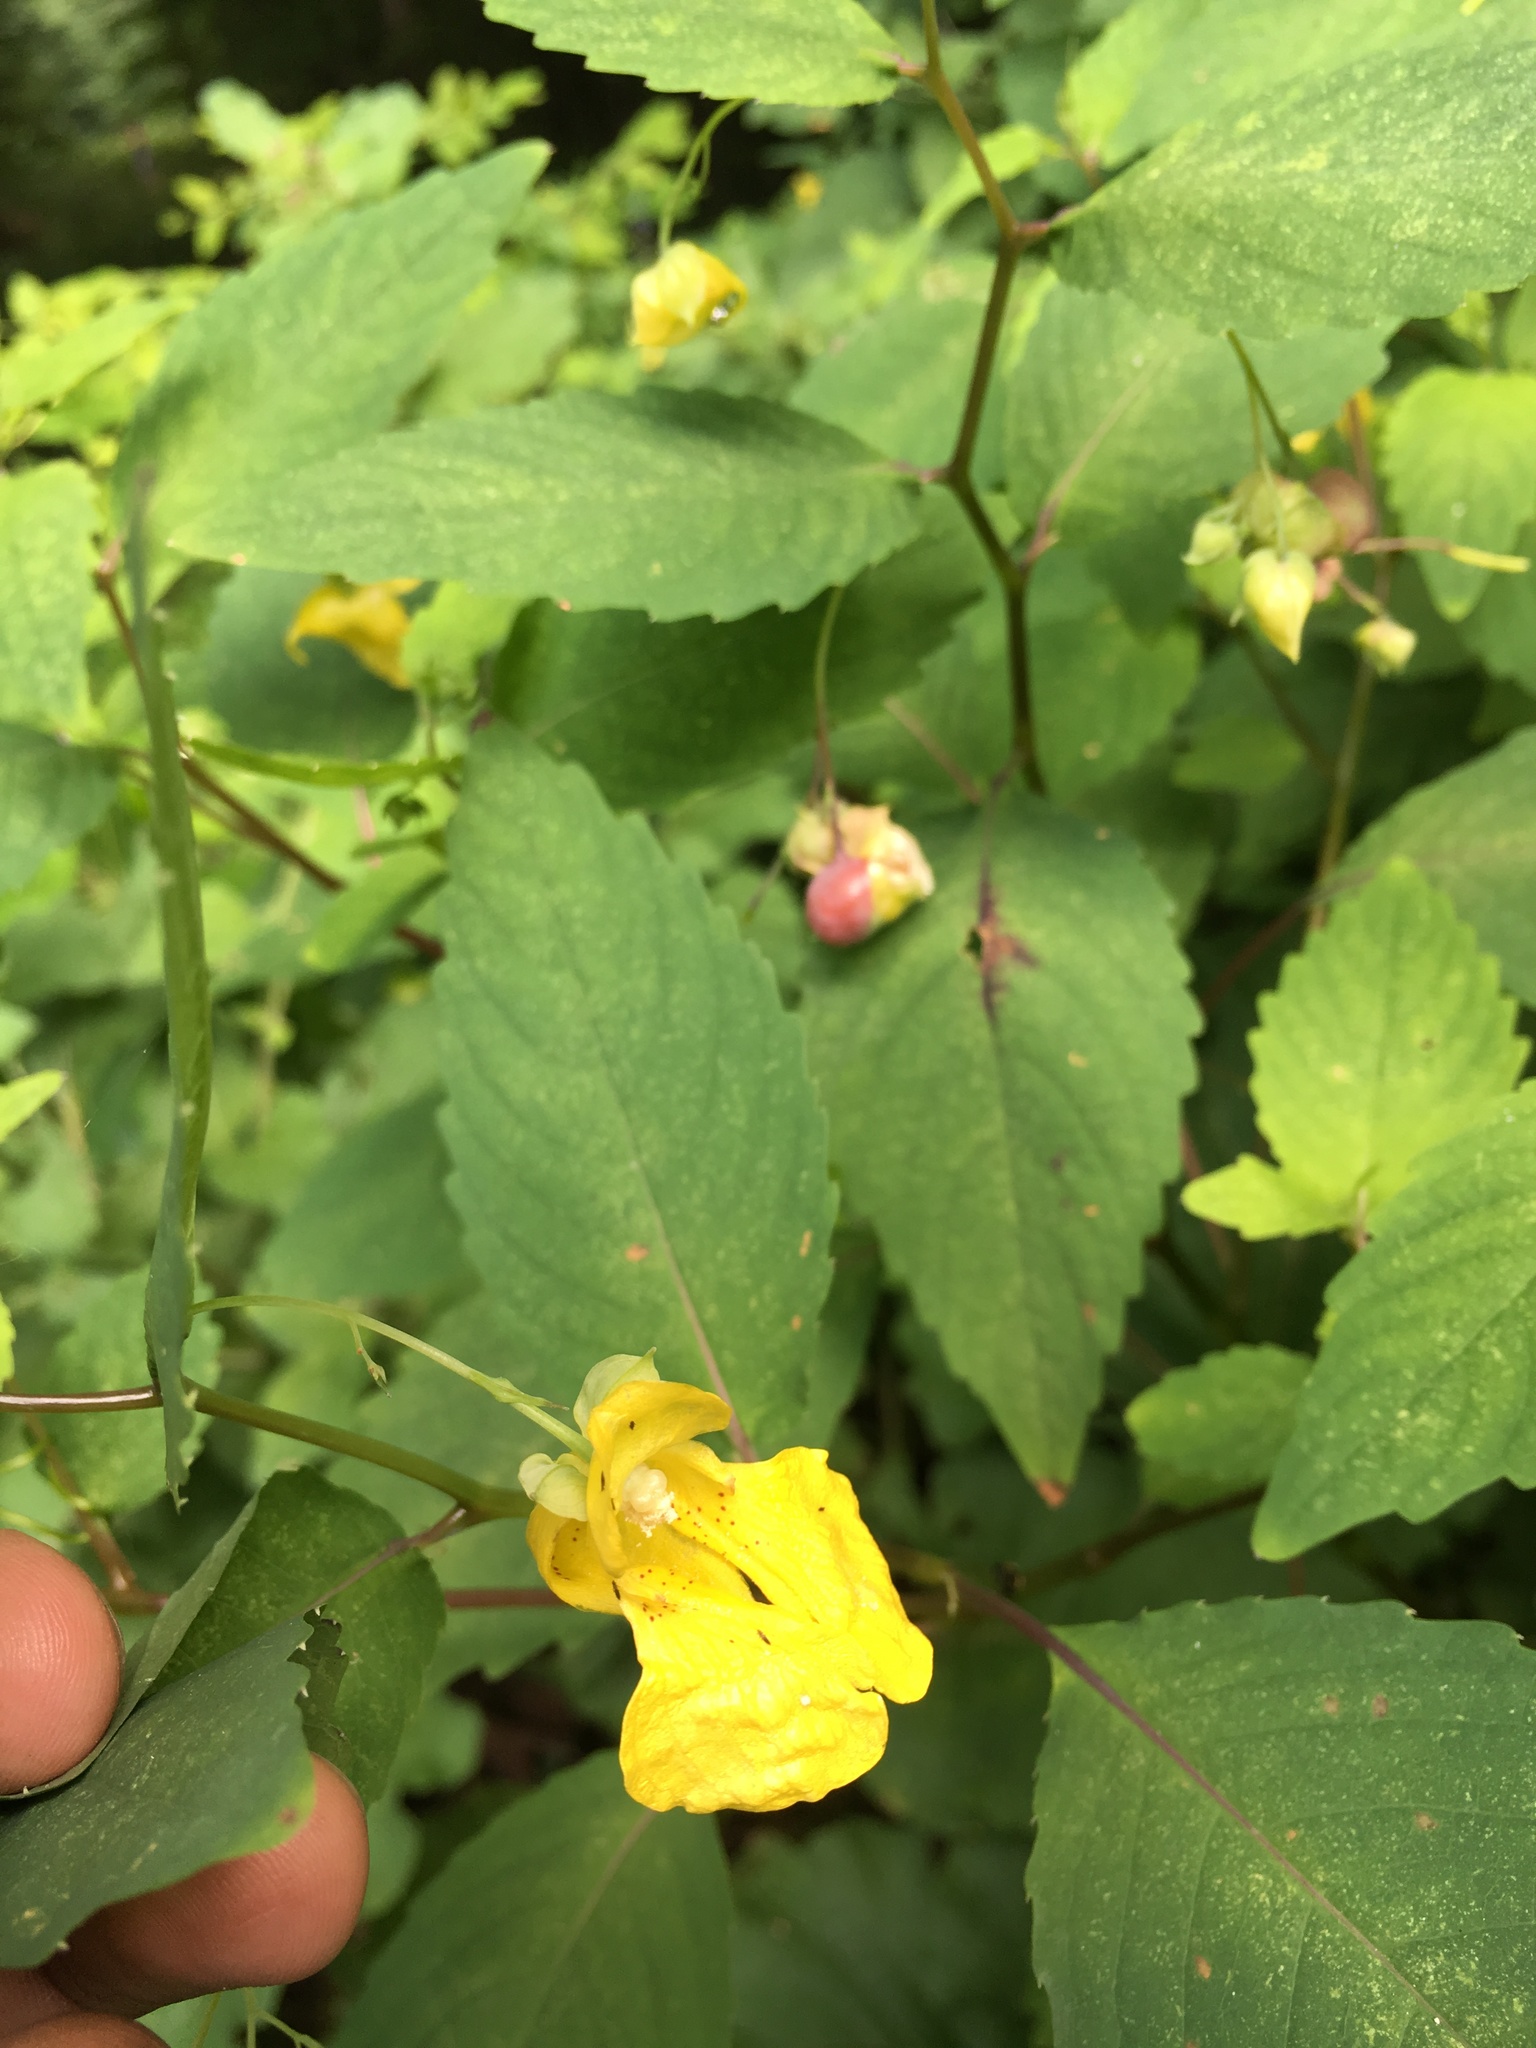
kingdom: Plantae
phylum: Tracheophyta
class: Magnoliopsida
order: Ericales
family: Balsaminaceae
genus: Impatiens
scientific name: Impatiens pallida
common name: Pale snapweed
